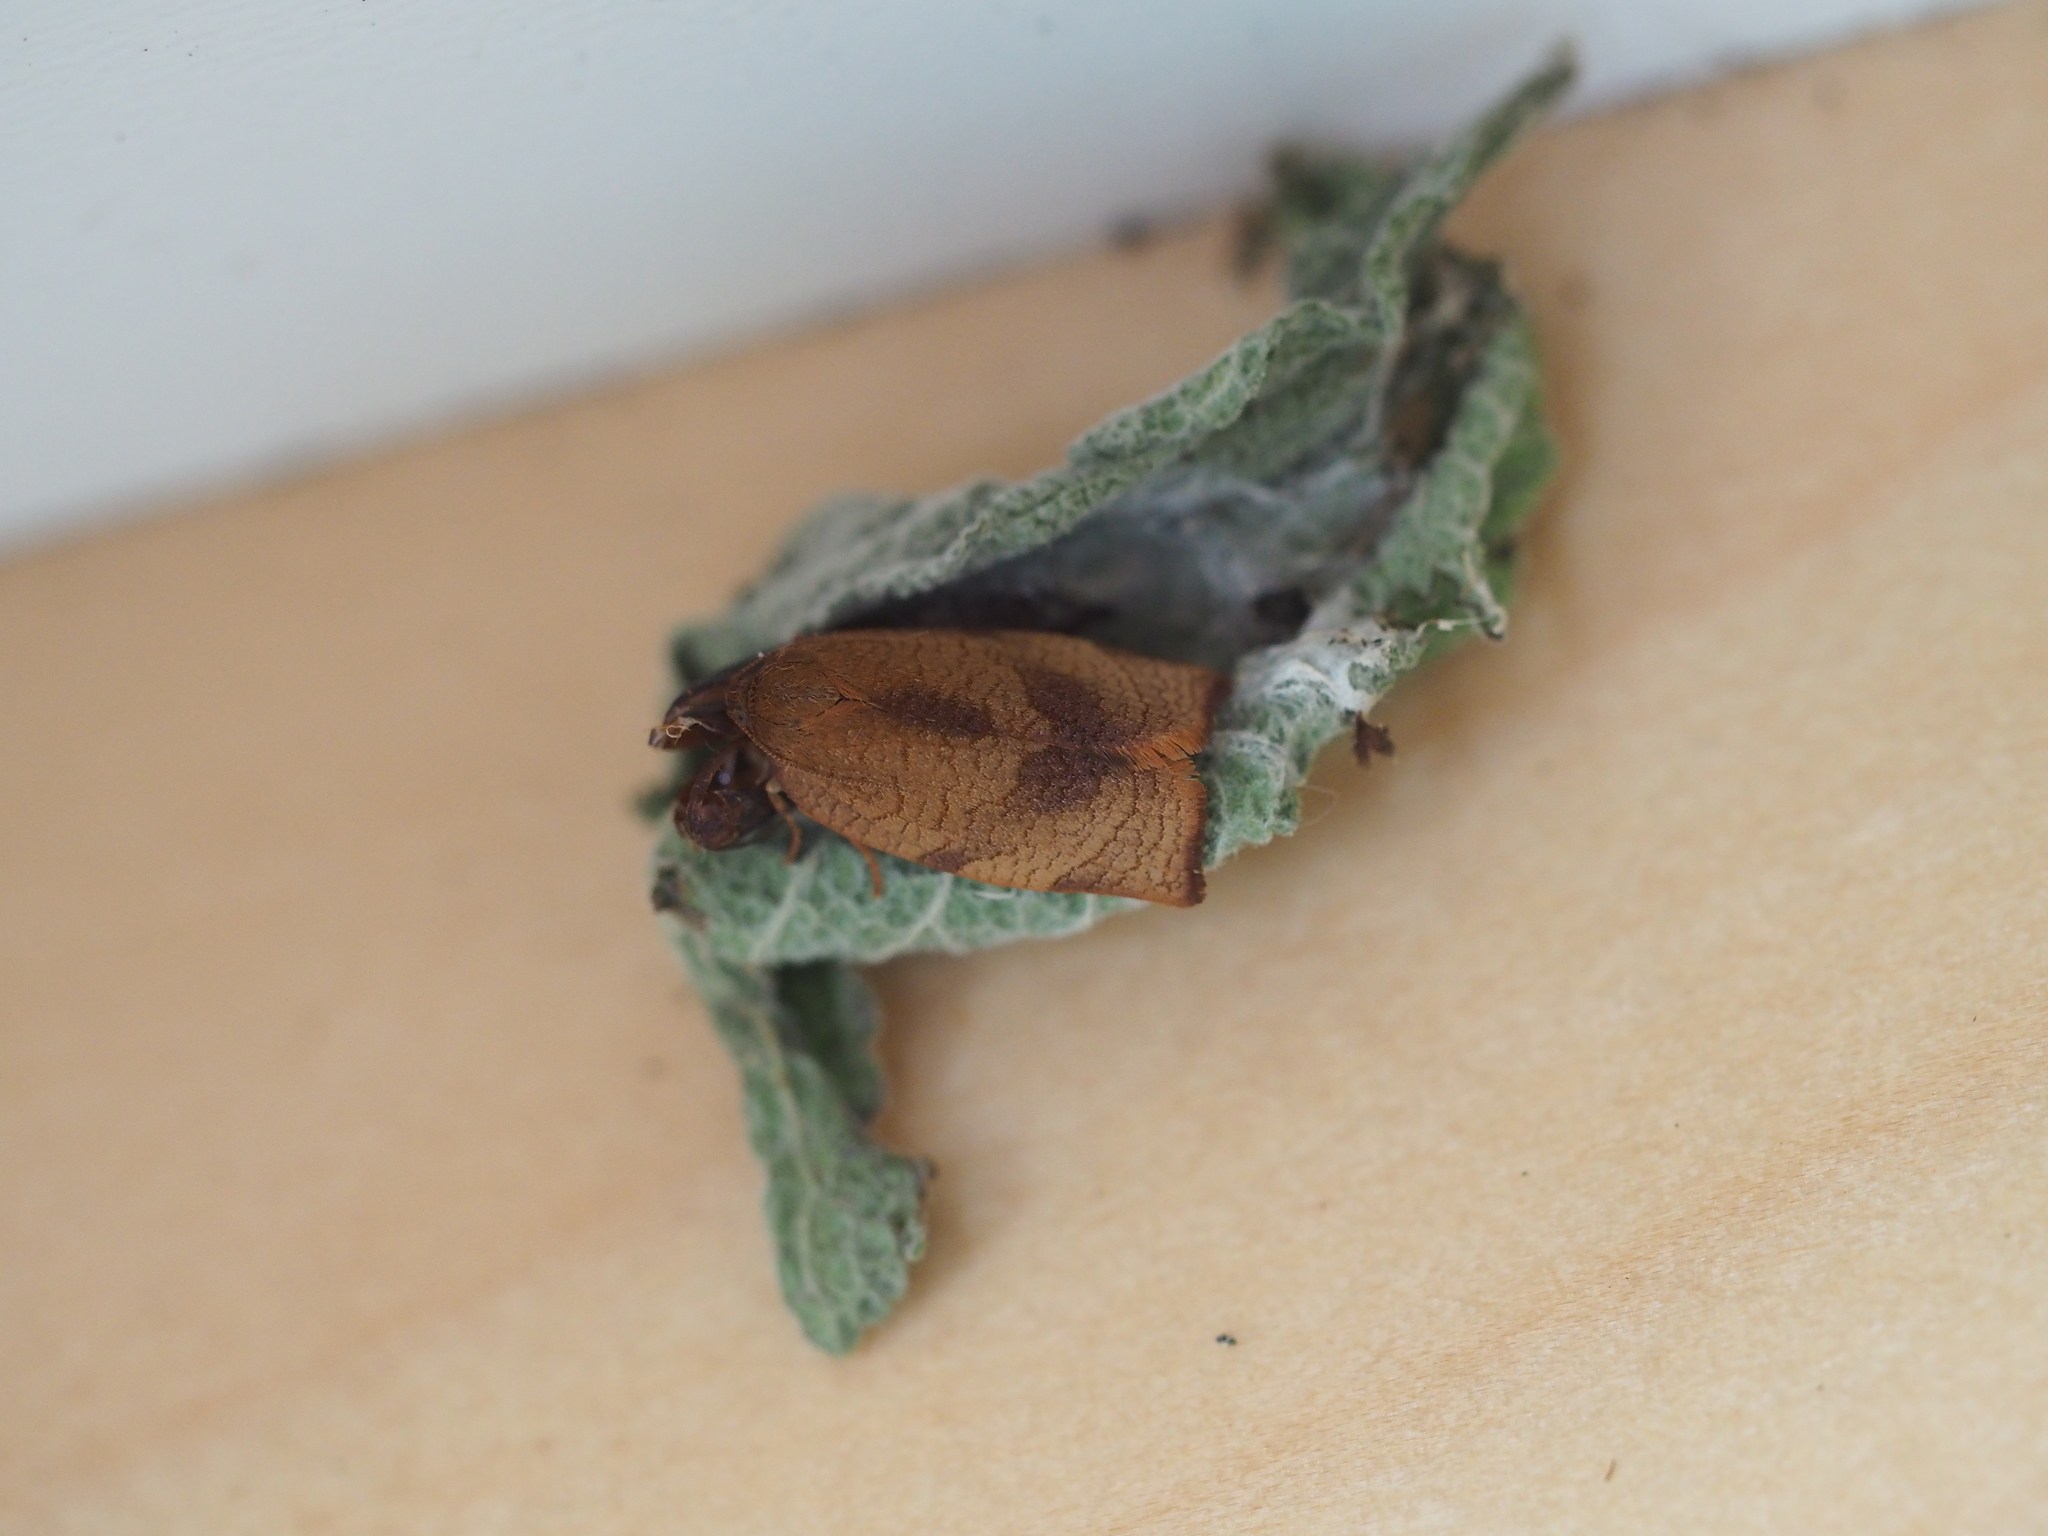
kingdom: Animalia
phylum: Arthropoda
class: Insecta
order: Lepidoptera
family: Tortricidae
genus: Cacoecimorpha
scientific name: Cacoecimorpha pronubana
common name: Carnation tortrix
